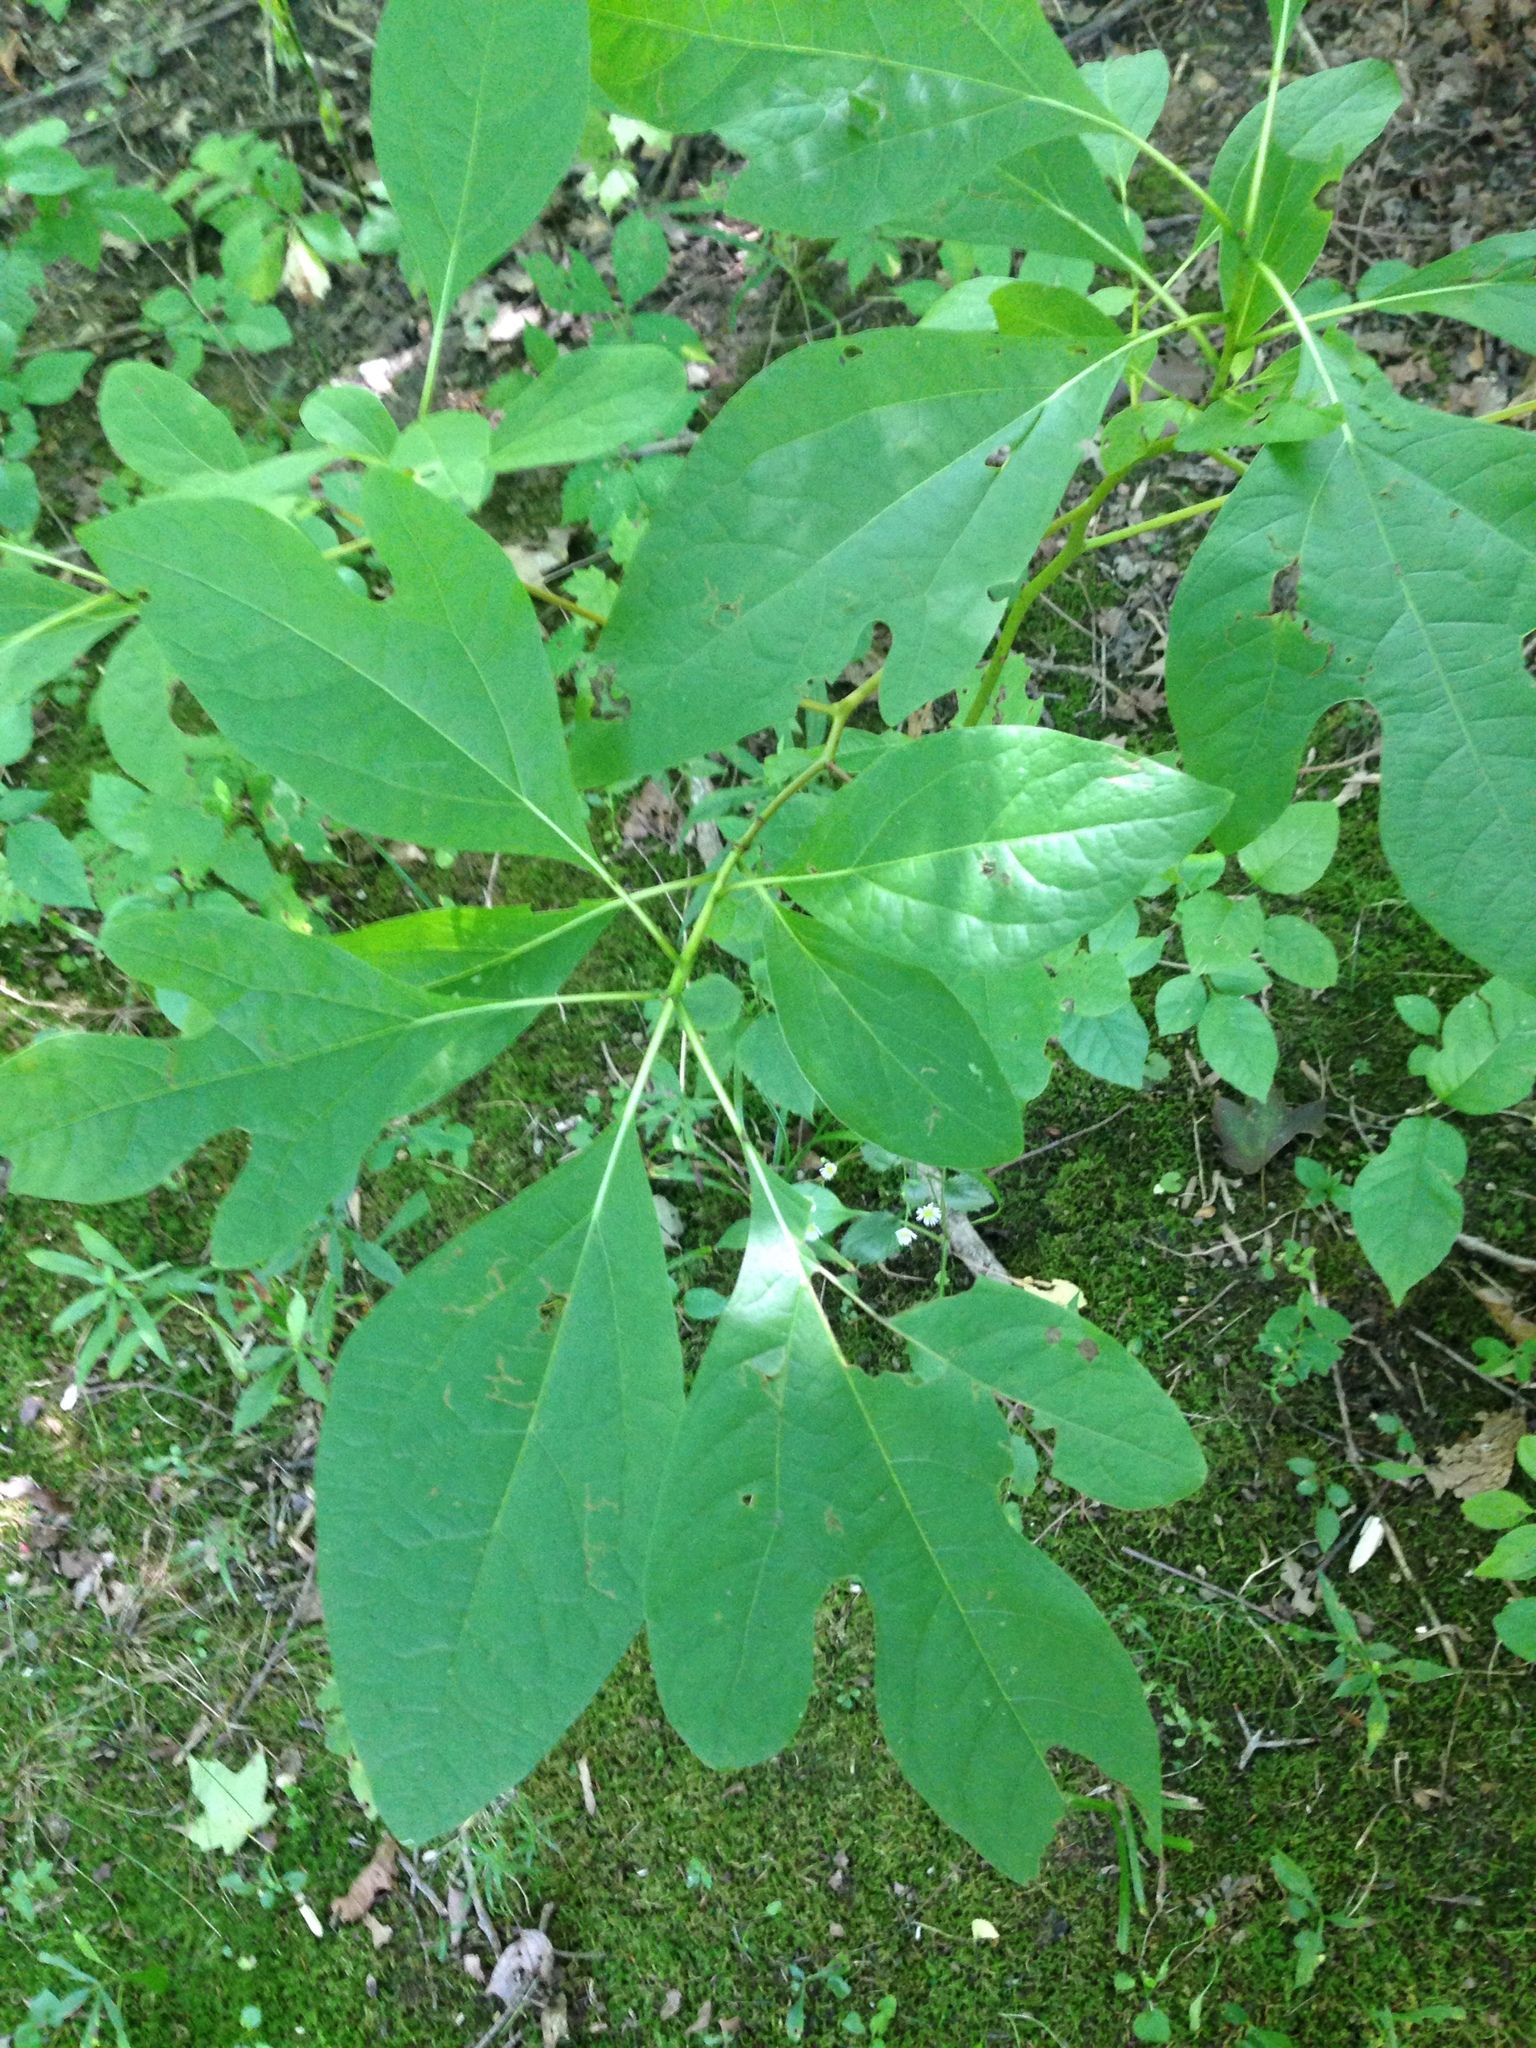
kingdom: Plantae
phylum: Tracheophyta
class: Magnoliopsida
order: Laurales
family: Lauraceae
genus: Sassafras
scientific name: Sassafras albidum
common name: Sassafras
